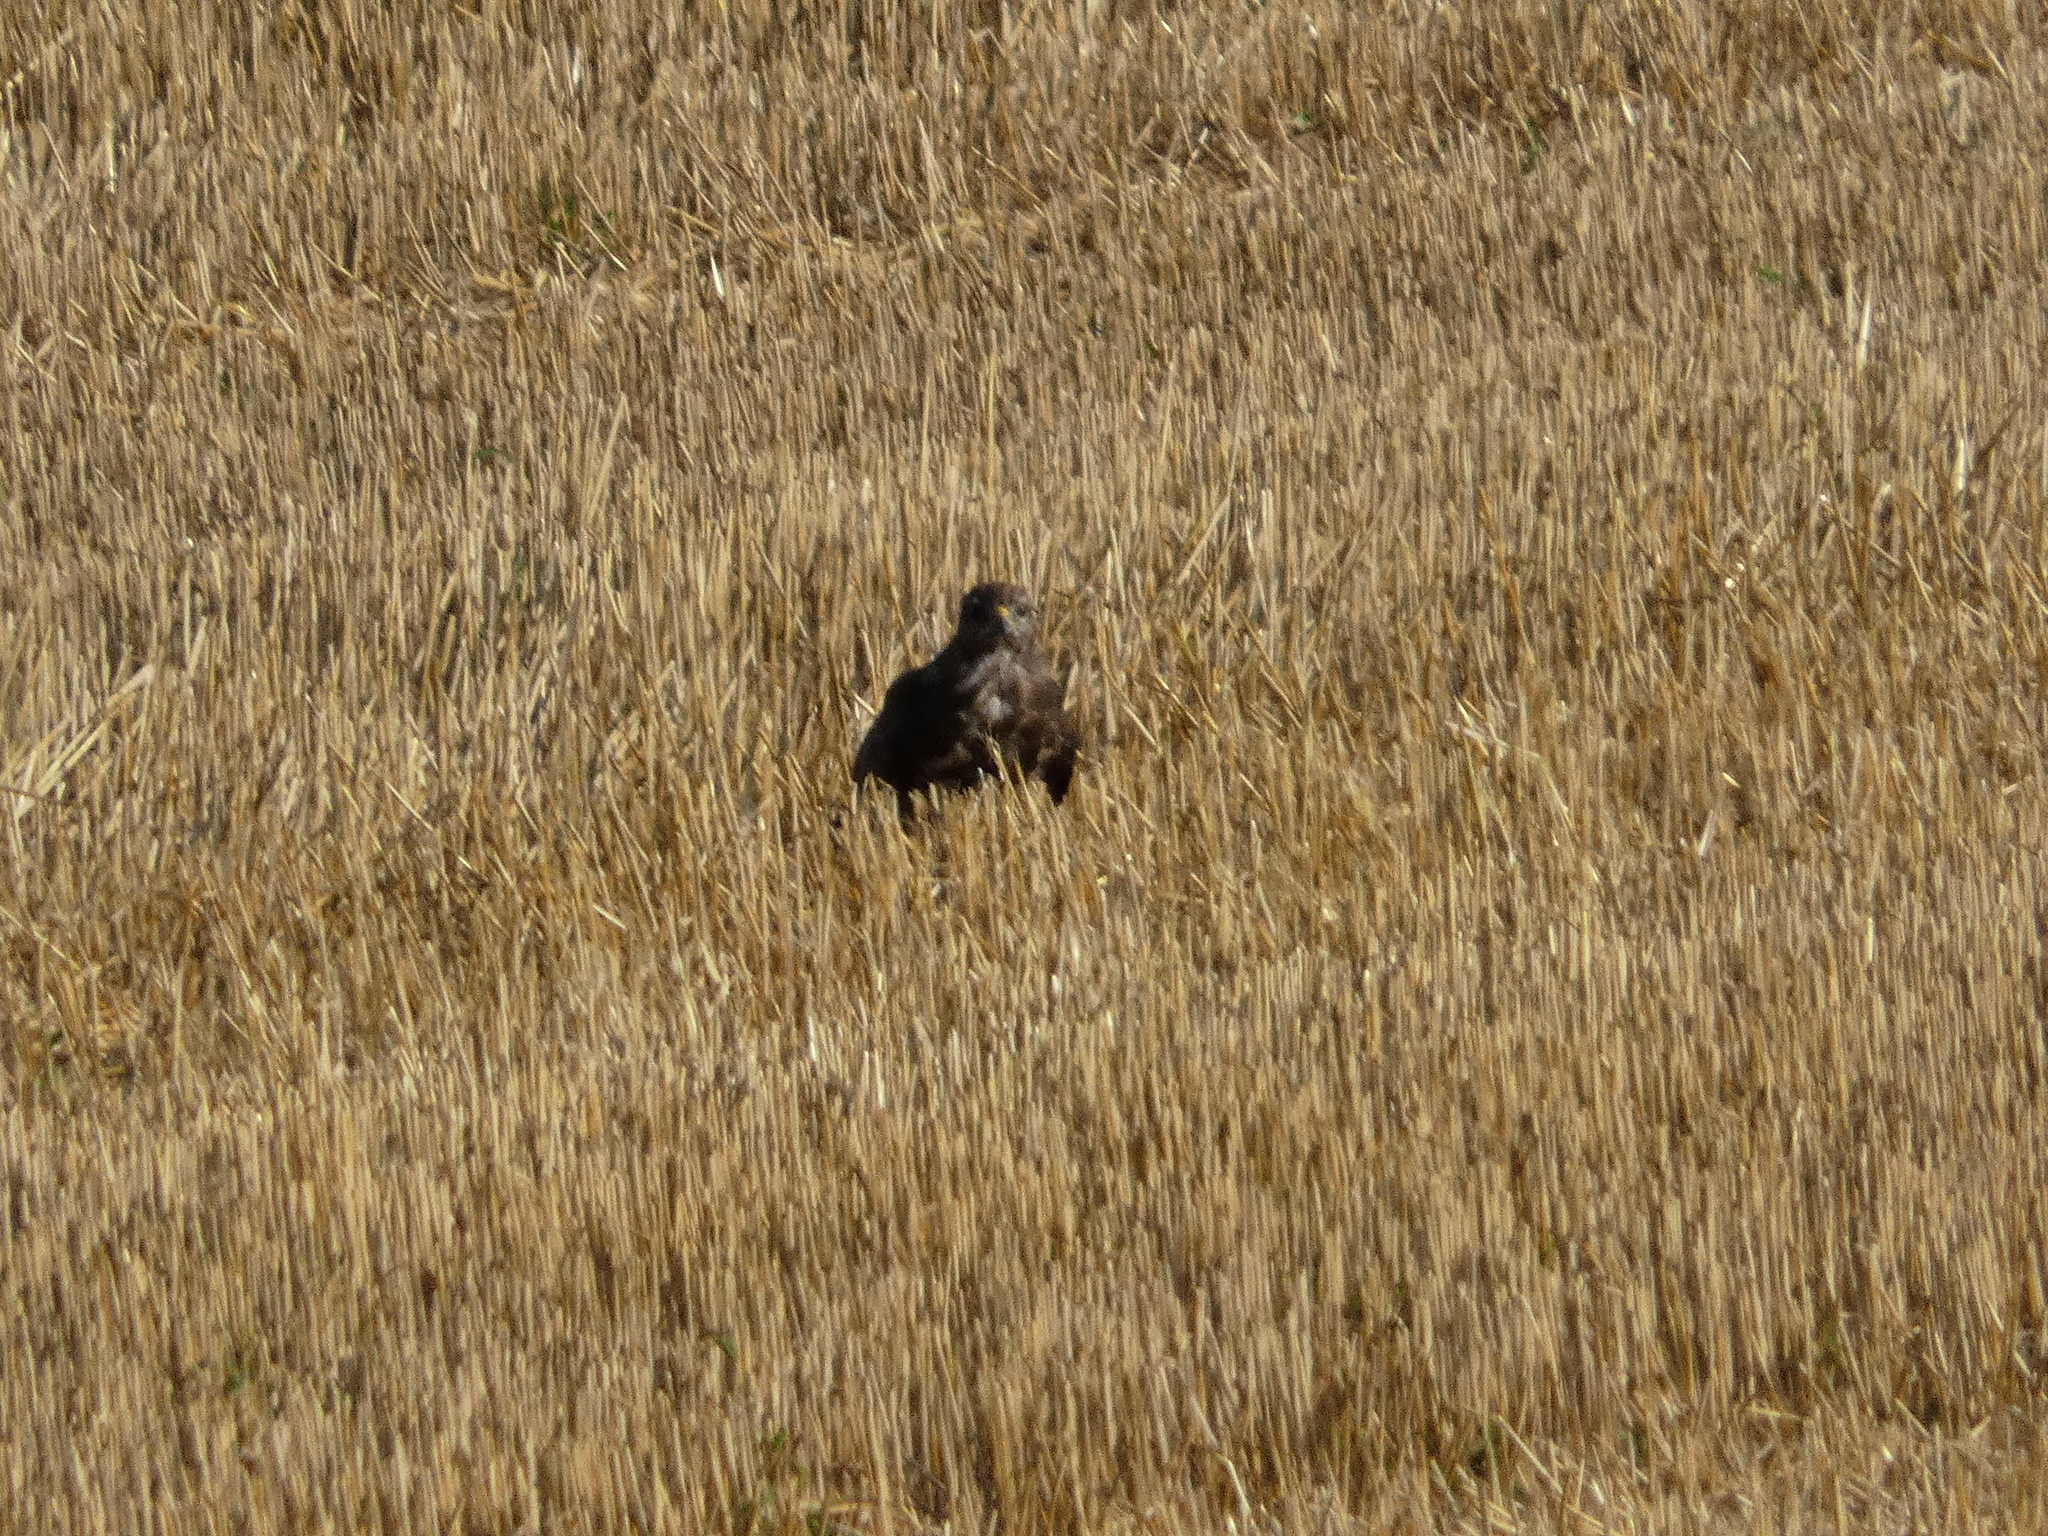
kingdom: Animalia
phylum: Chordata
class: Aves
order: Accipitriformes
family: Accipitridae
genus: Buteo
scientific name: Buteo buteo
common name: Common buzzard
